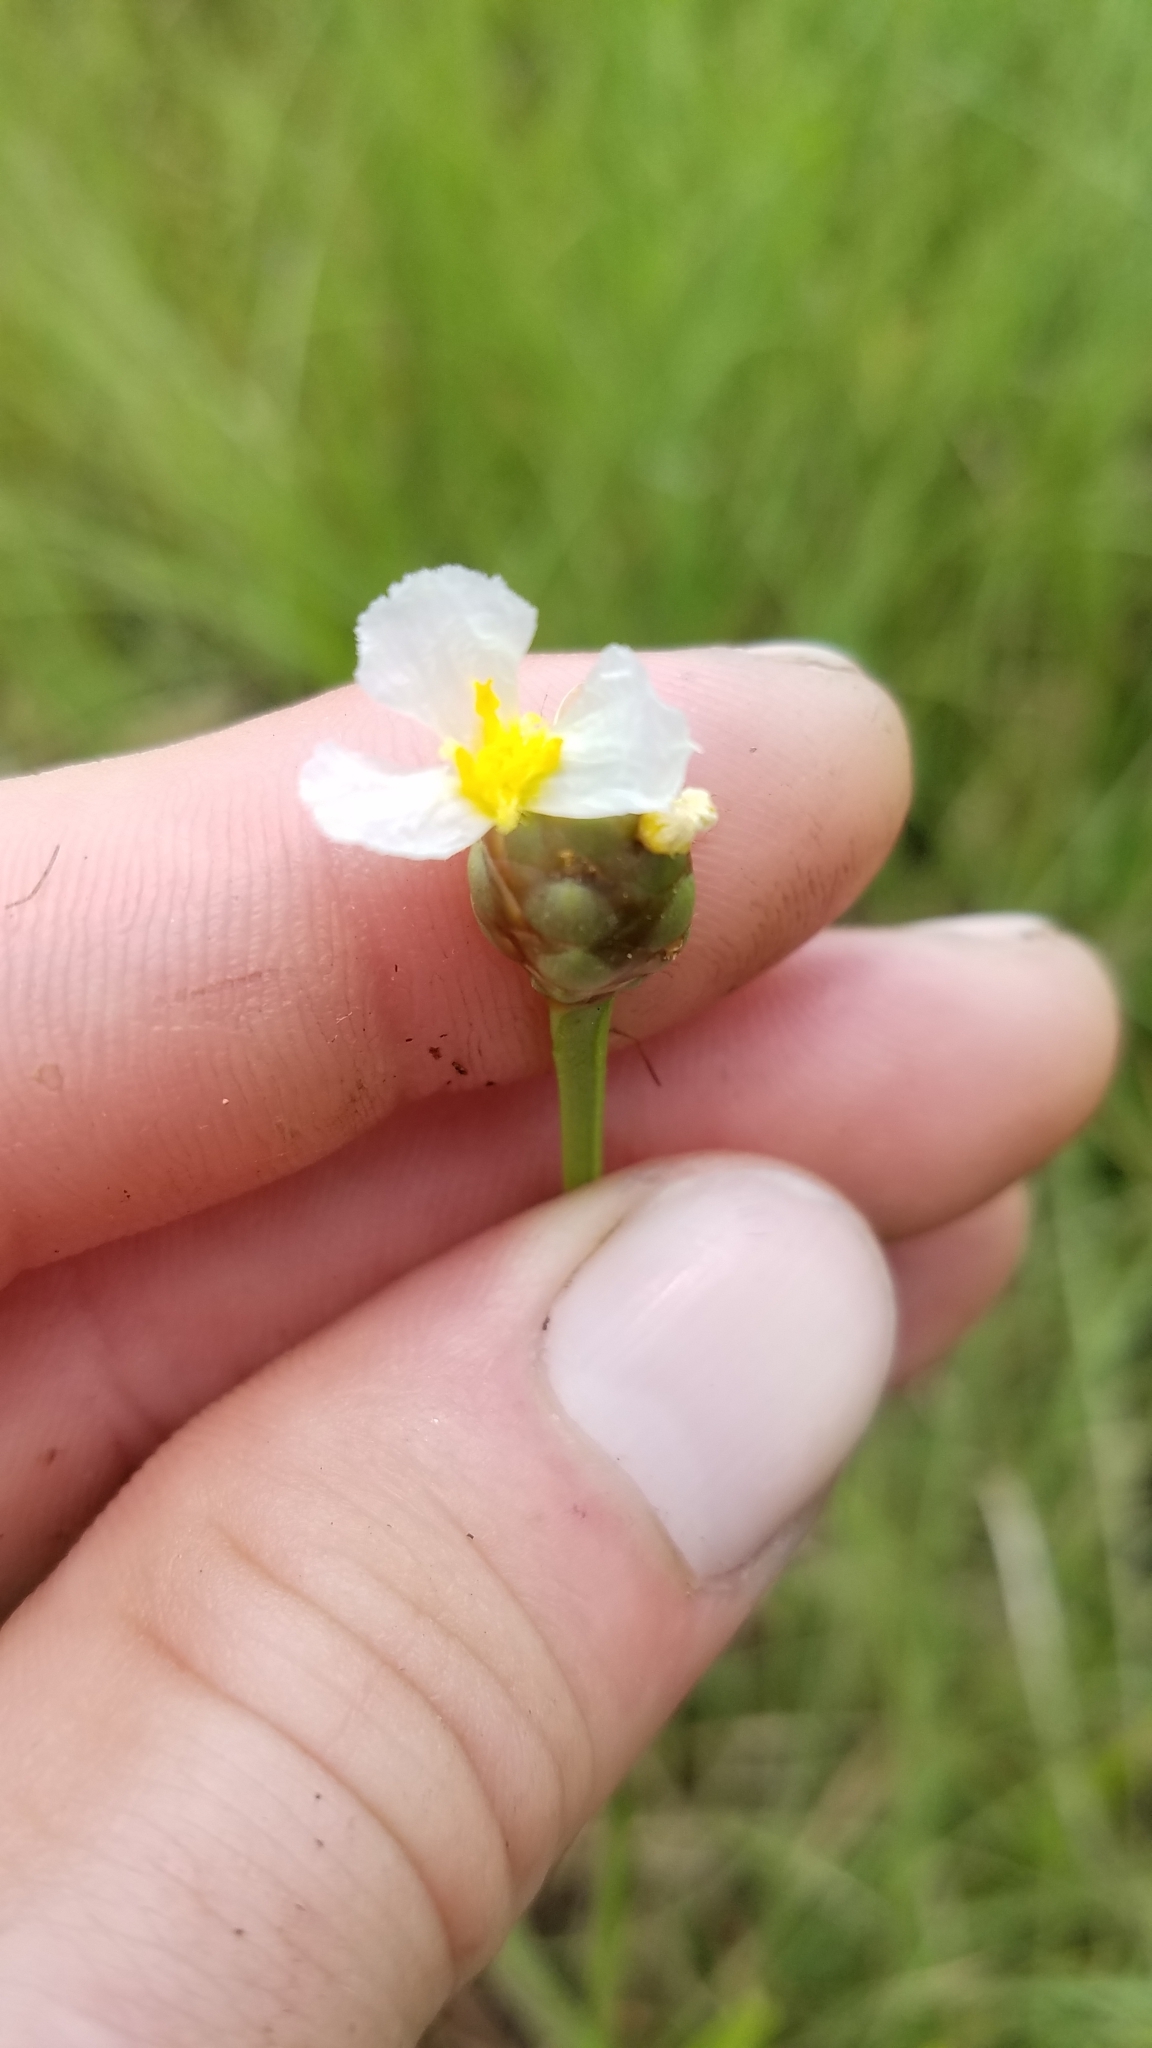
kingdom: Plantae
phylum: Tracheophyta
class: Liliopsida
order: Poales
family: Xyridaceae
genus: Xyris
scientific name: Xyris platylepis
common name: Tall yelloweyed grass
